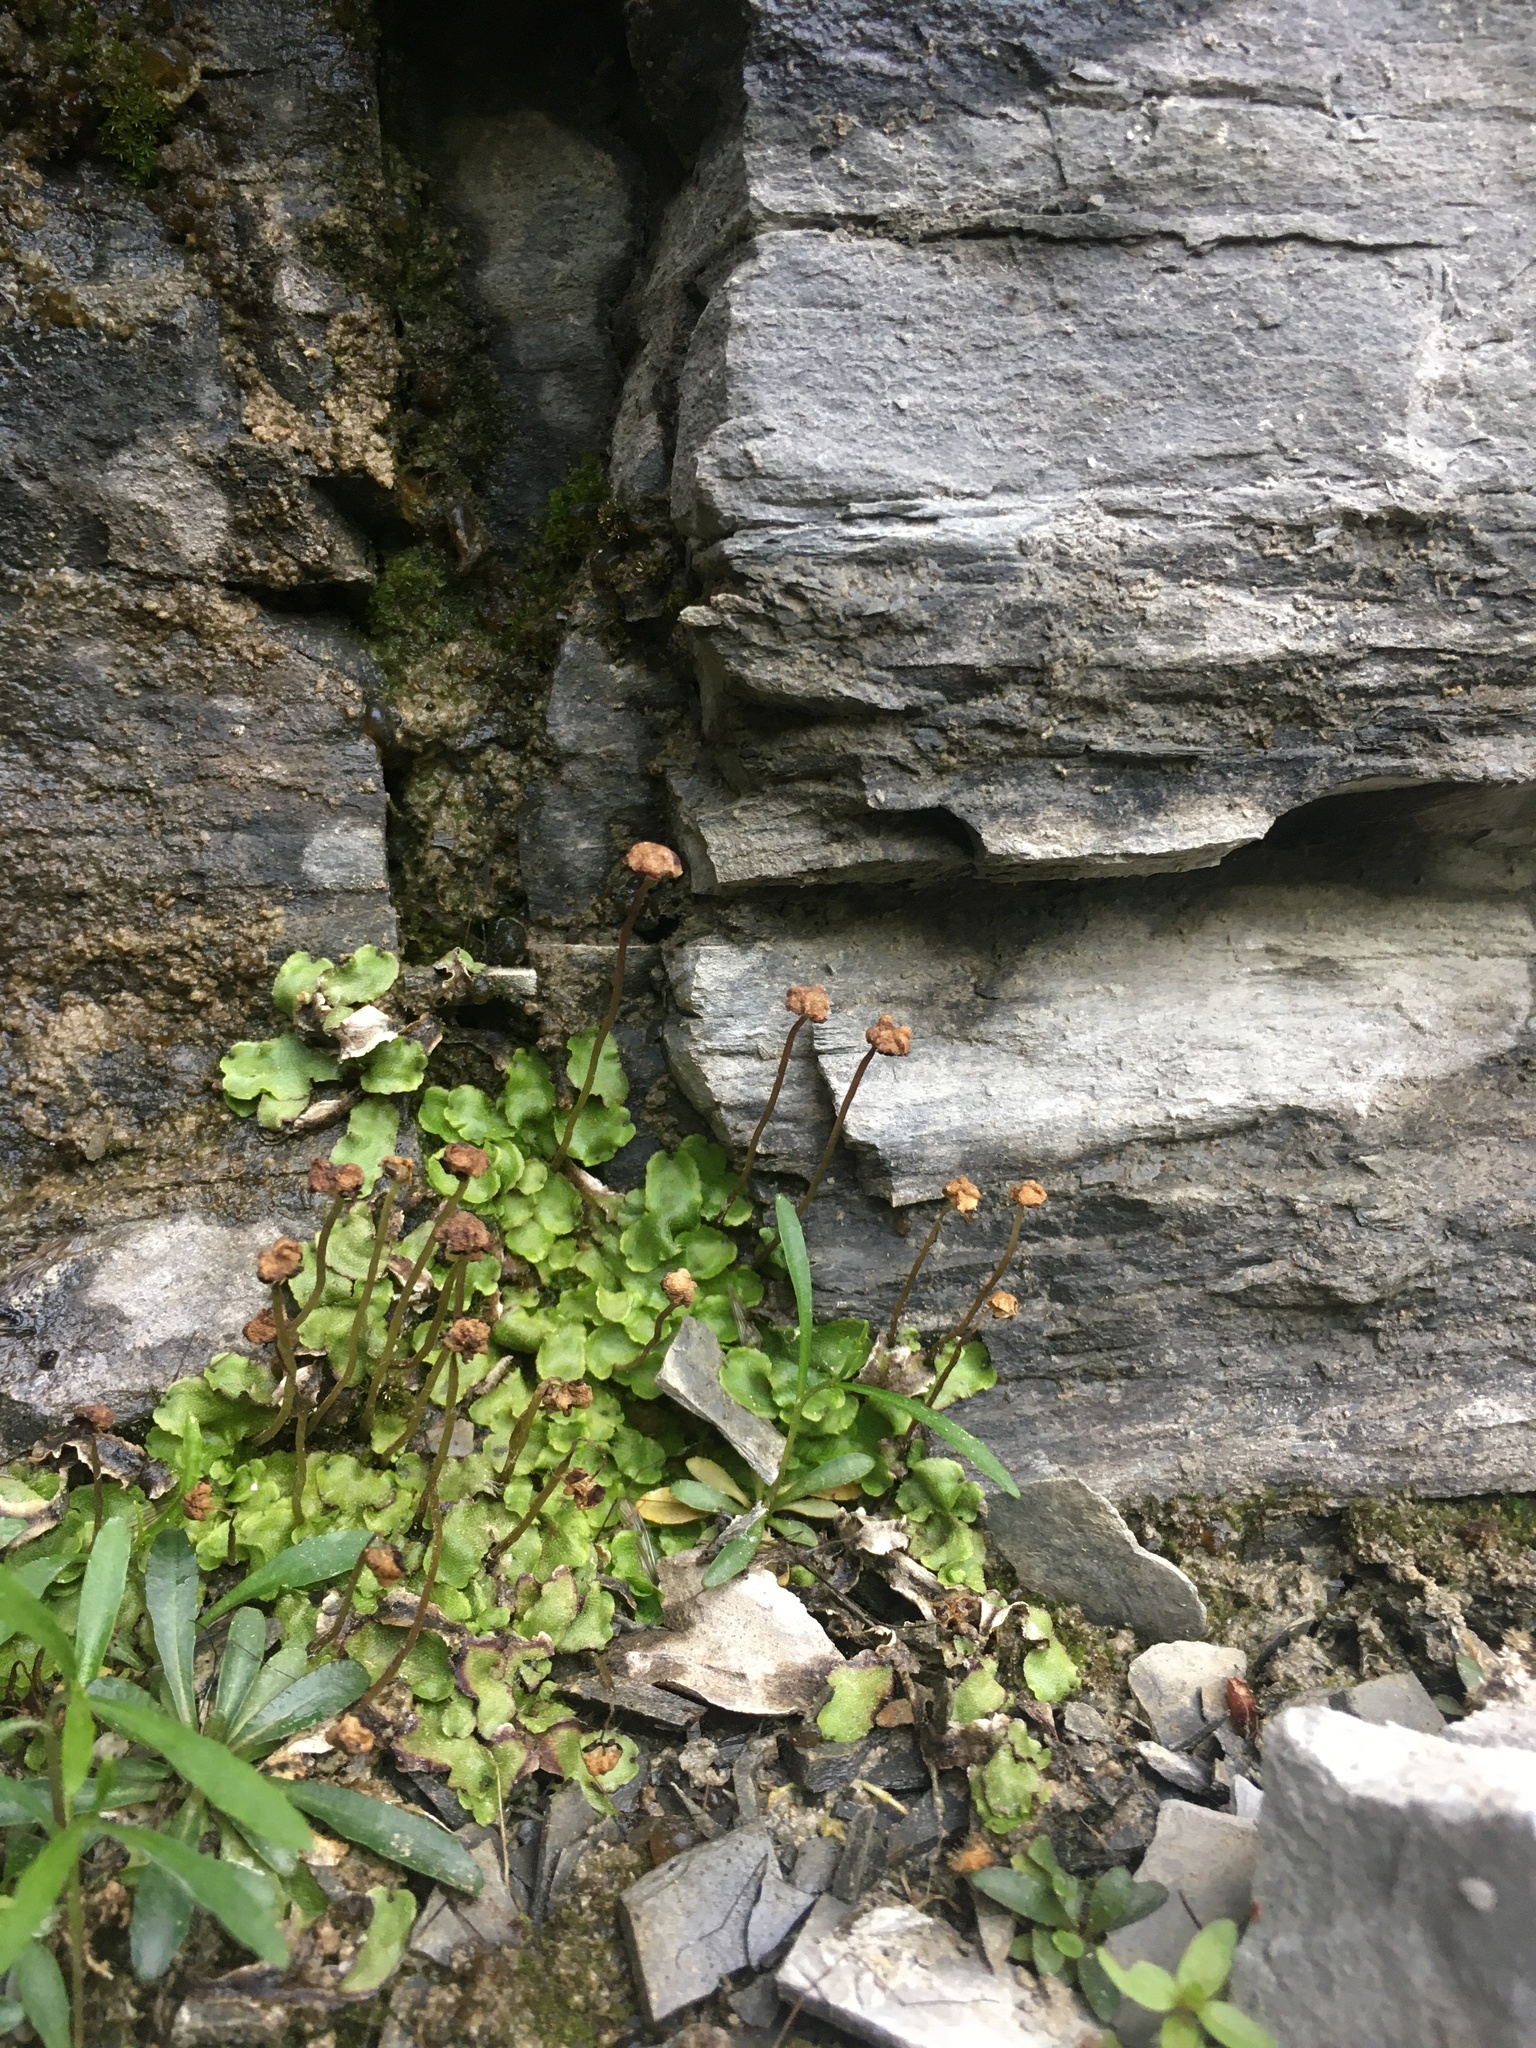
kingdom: Plantae
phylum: Marchantiophyta
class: Marchantiopsida
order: Marchantiales
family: Marchantiaceae
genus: Marchantia
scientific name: Marchantia quadrata
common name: Narrow mushroom-headed liverwort
